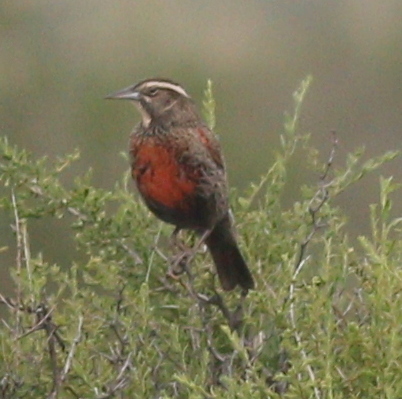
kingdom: Animalia
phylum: Chordata
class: Aves
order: Passeriformes
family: Icteridae
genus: Sturnella
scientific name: Sturnella loyca
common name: Long-tailed meadowlark
